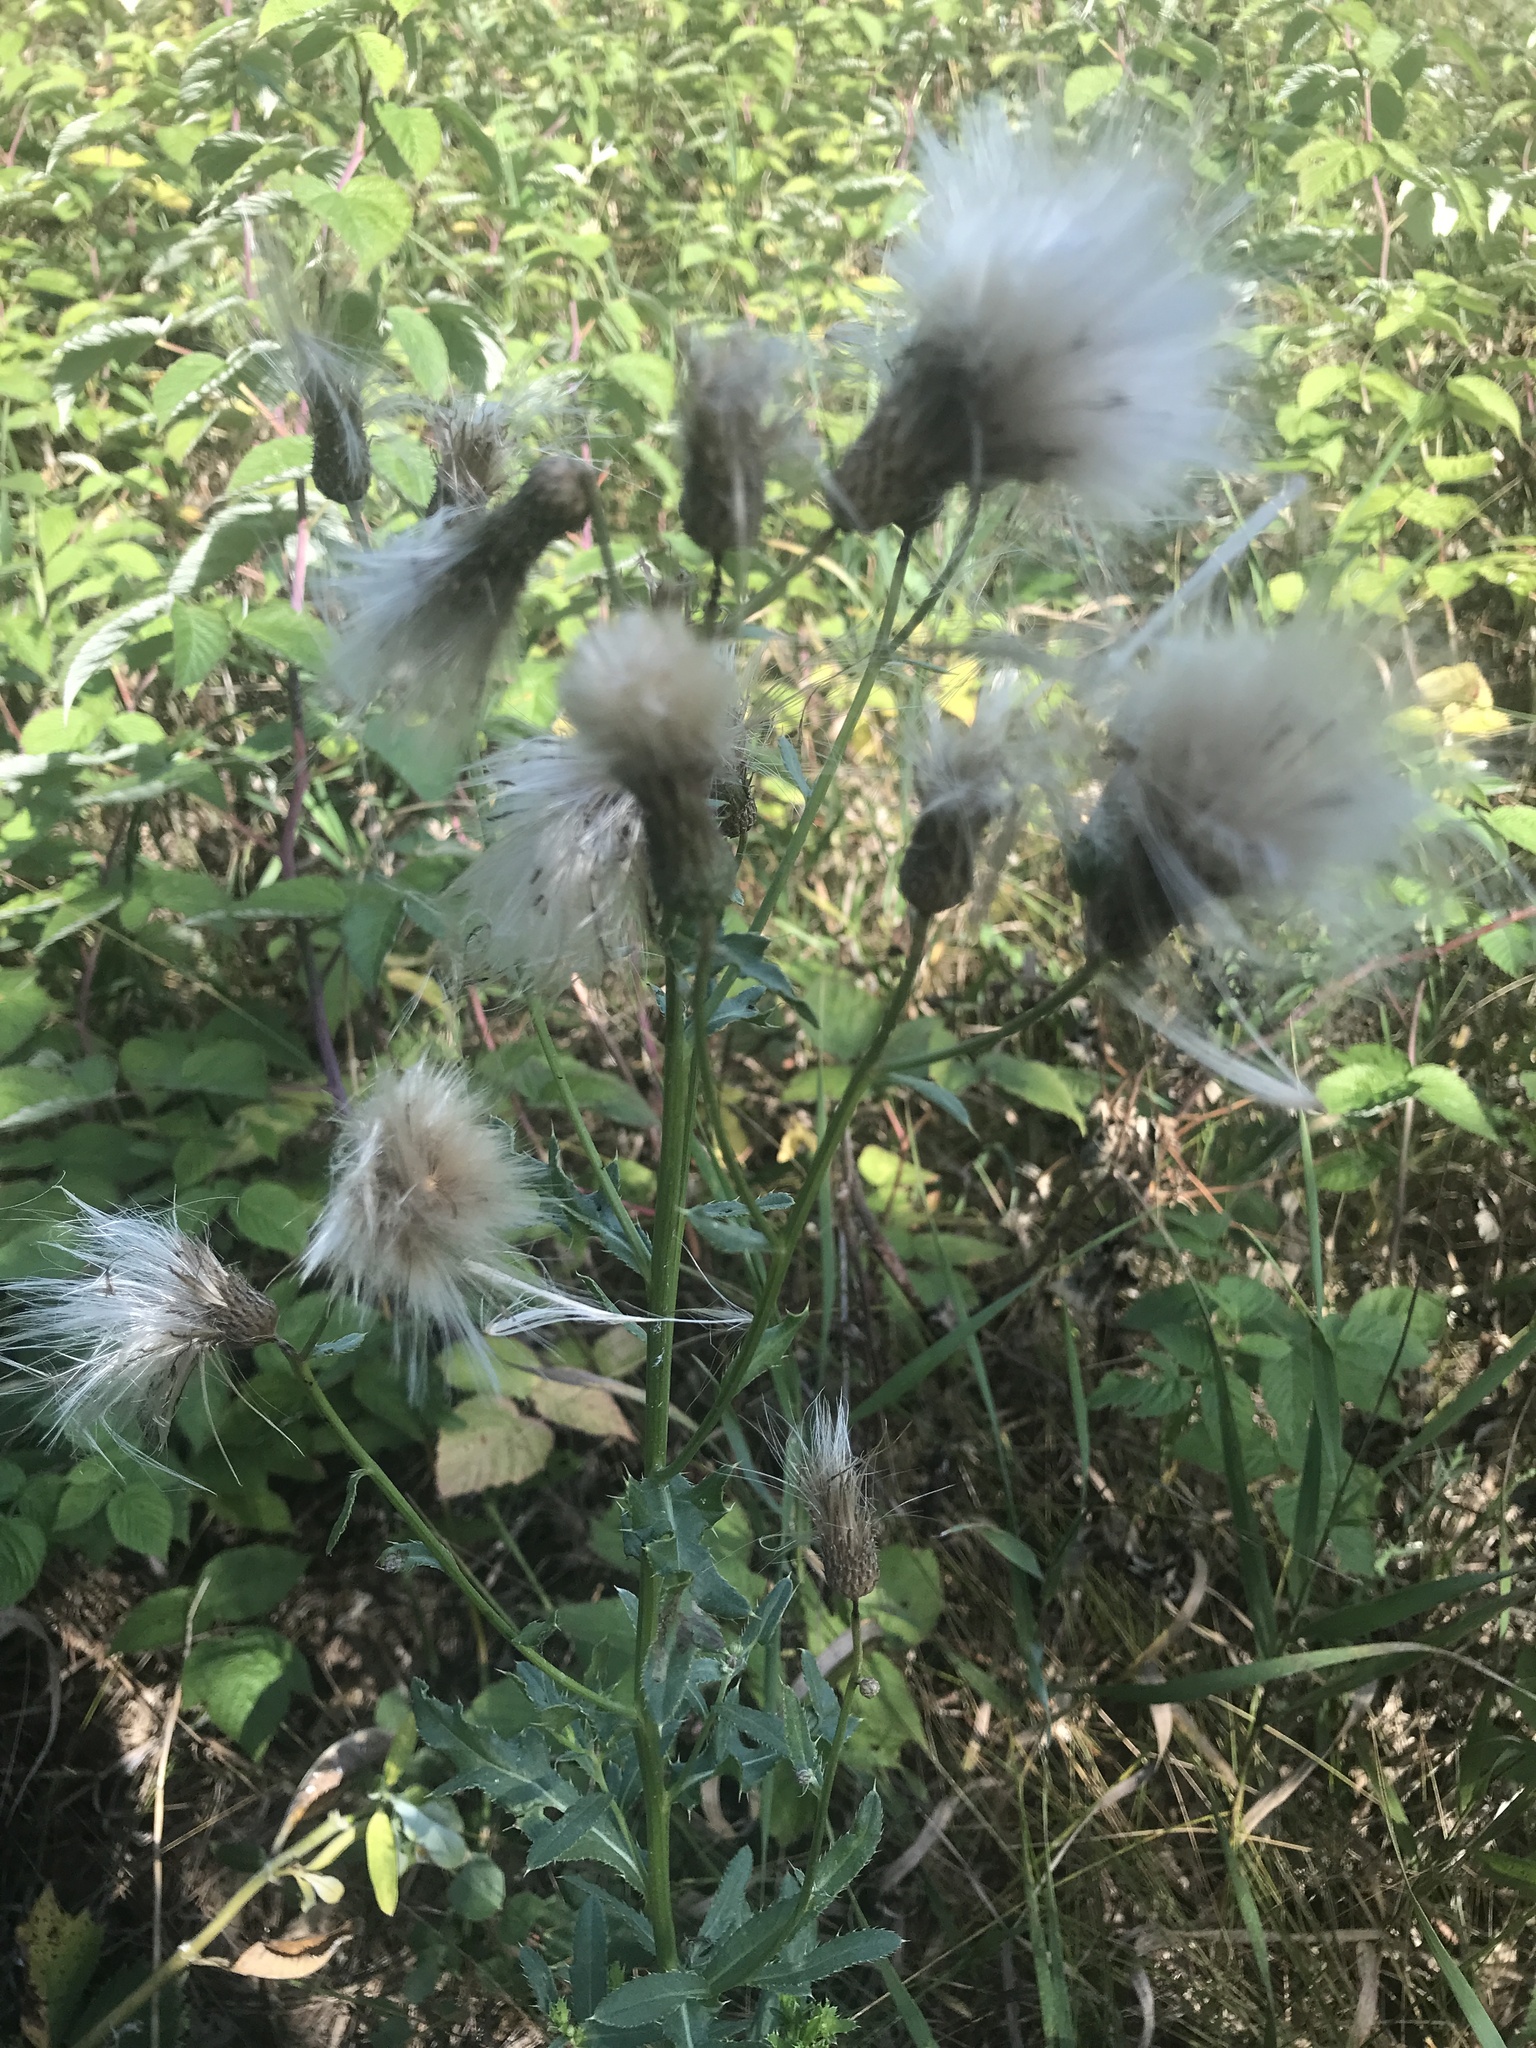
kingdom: Plantae
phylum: Tracheophyta
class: Magnoliopsida
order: Asterales
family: Asteraceae
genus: Cirsium
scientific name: Cirsium arvense
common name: Creeping thistle
